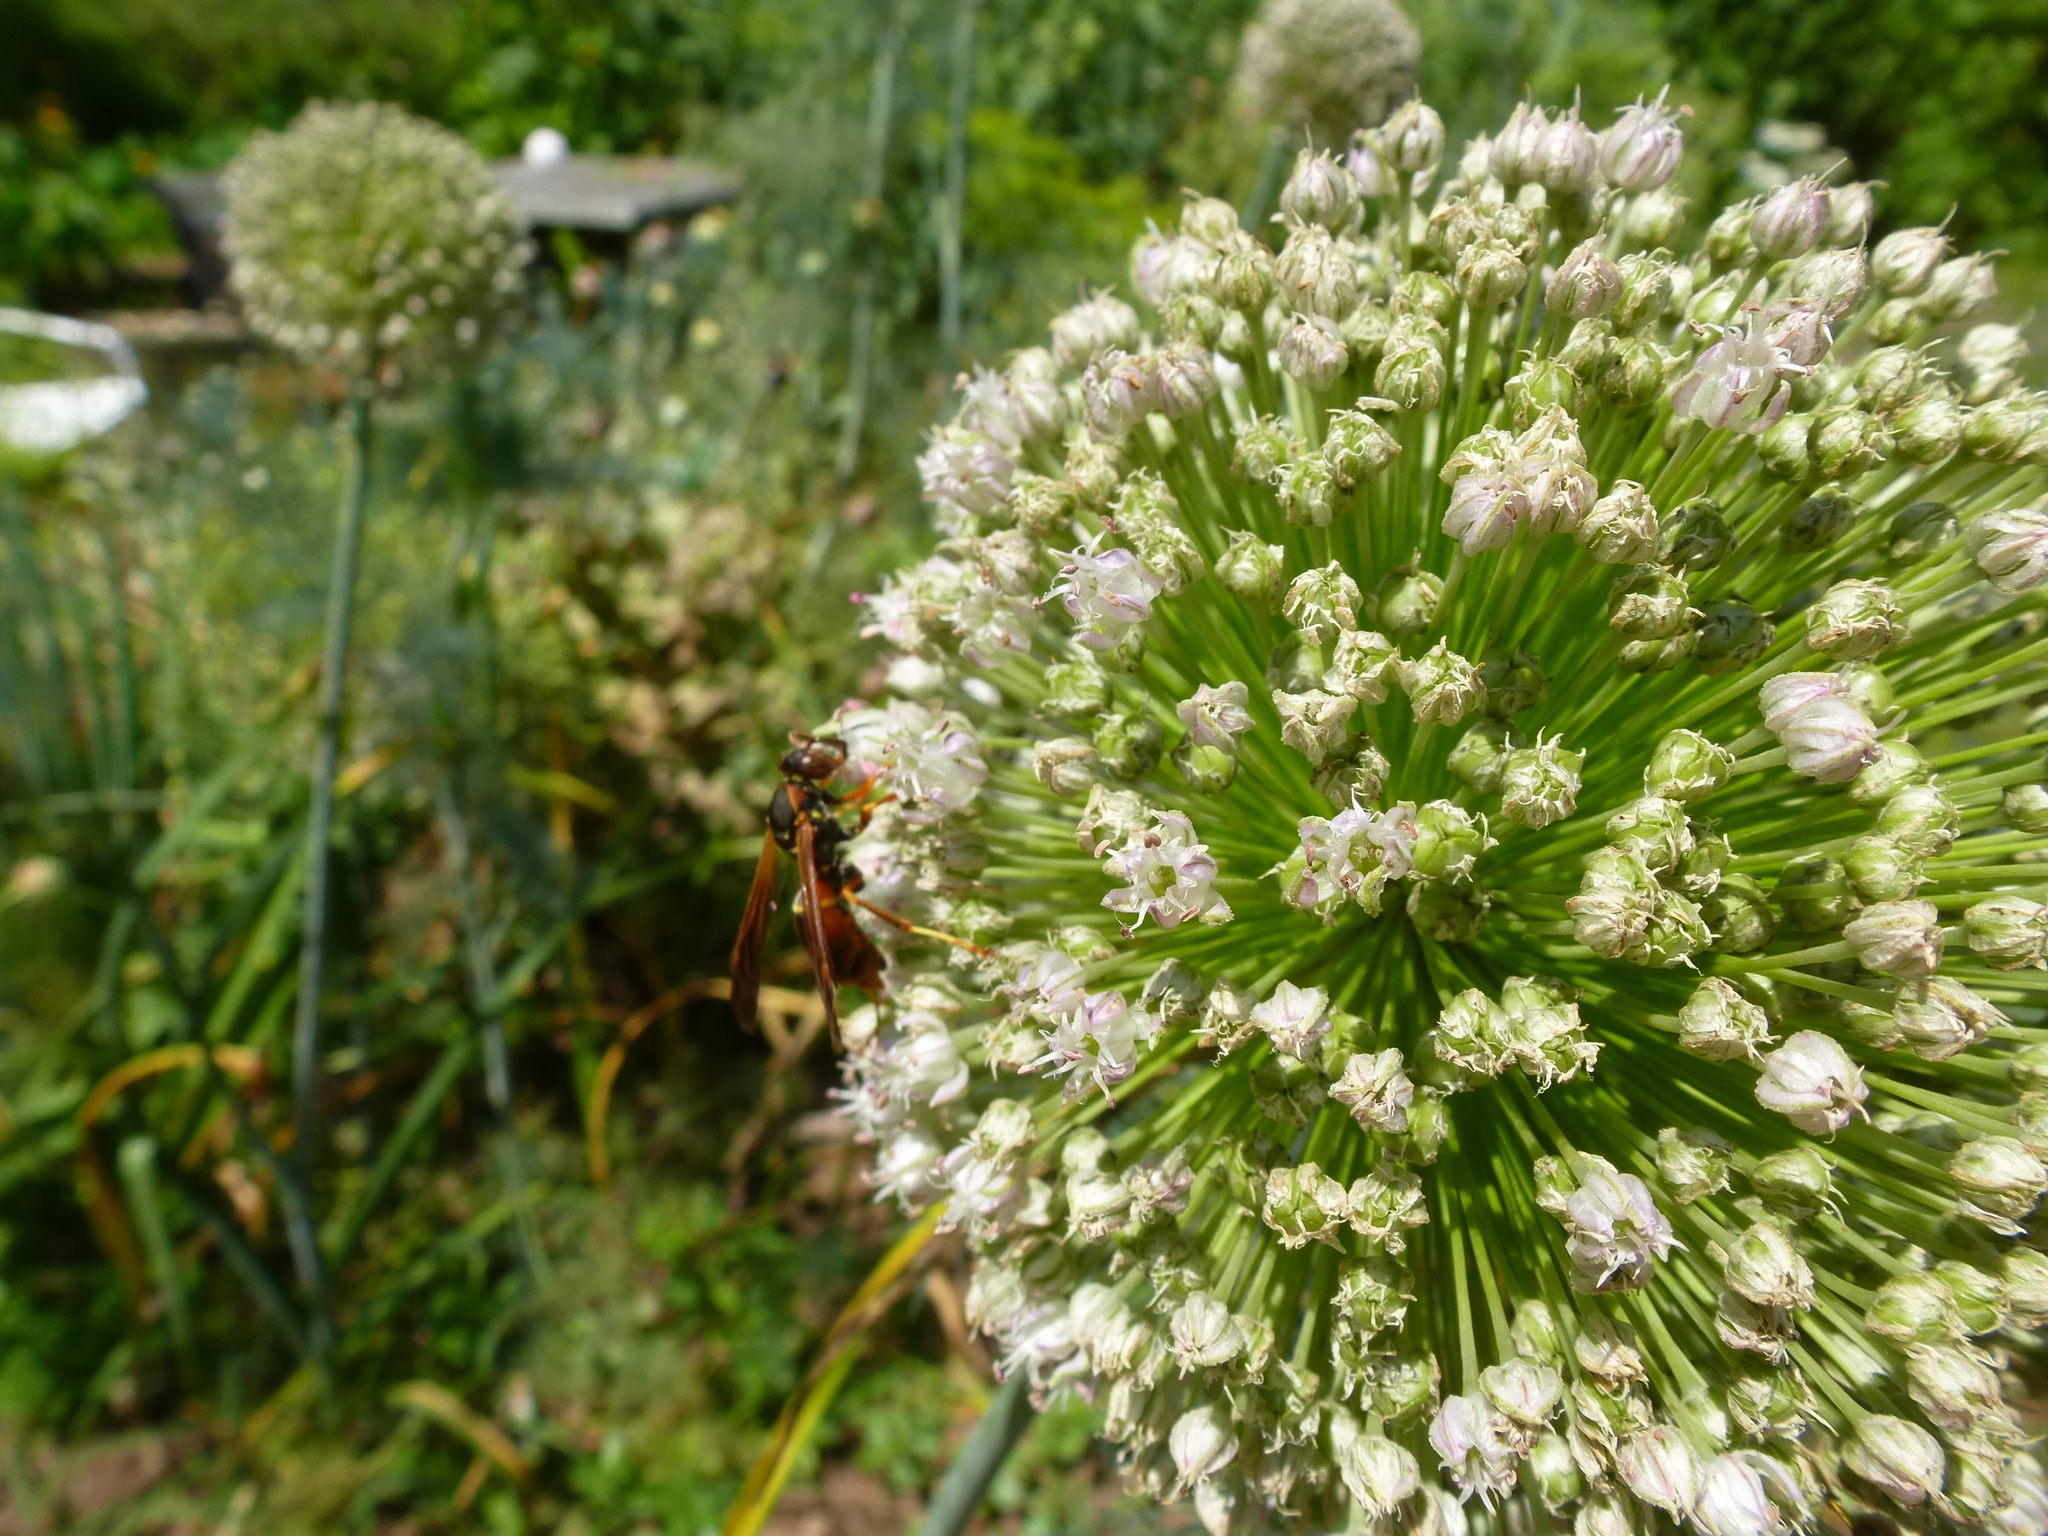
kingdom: Animalia
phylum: Arthropoda
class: Insecta
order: Hymenoptera
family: Eumenidae
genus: Polistes
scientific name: Polistes fuscatus
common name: Dark paper wasp
